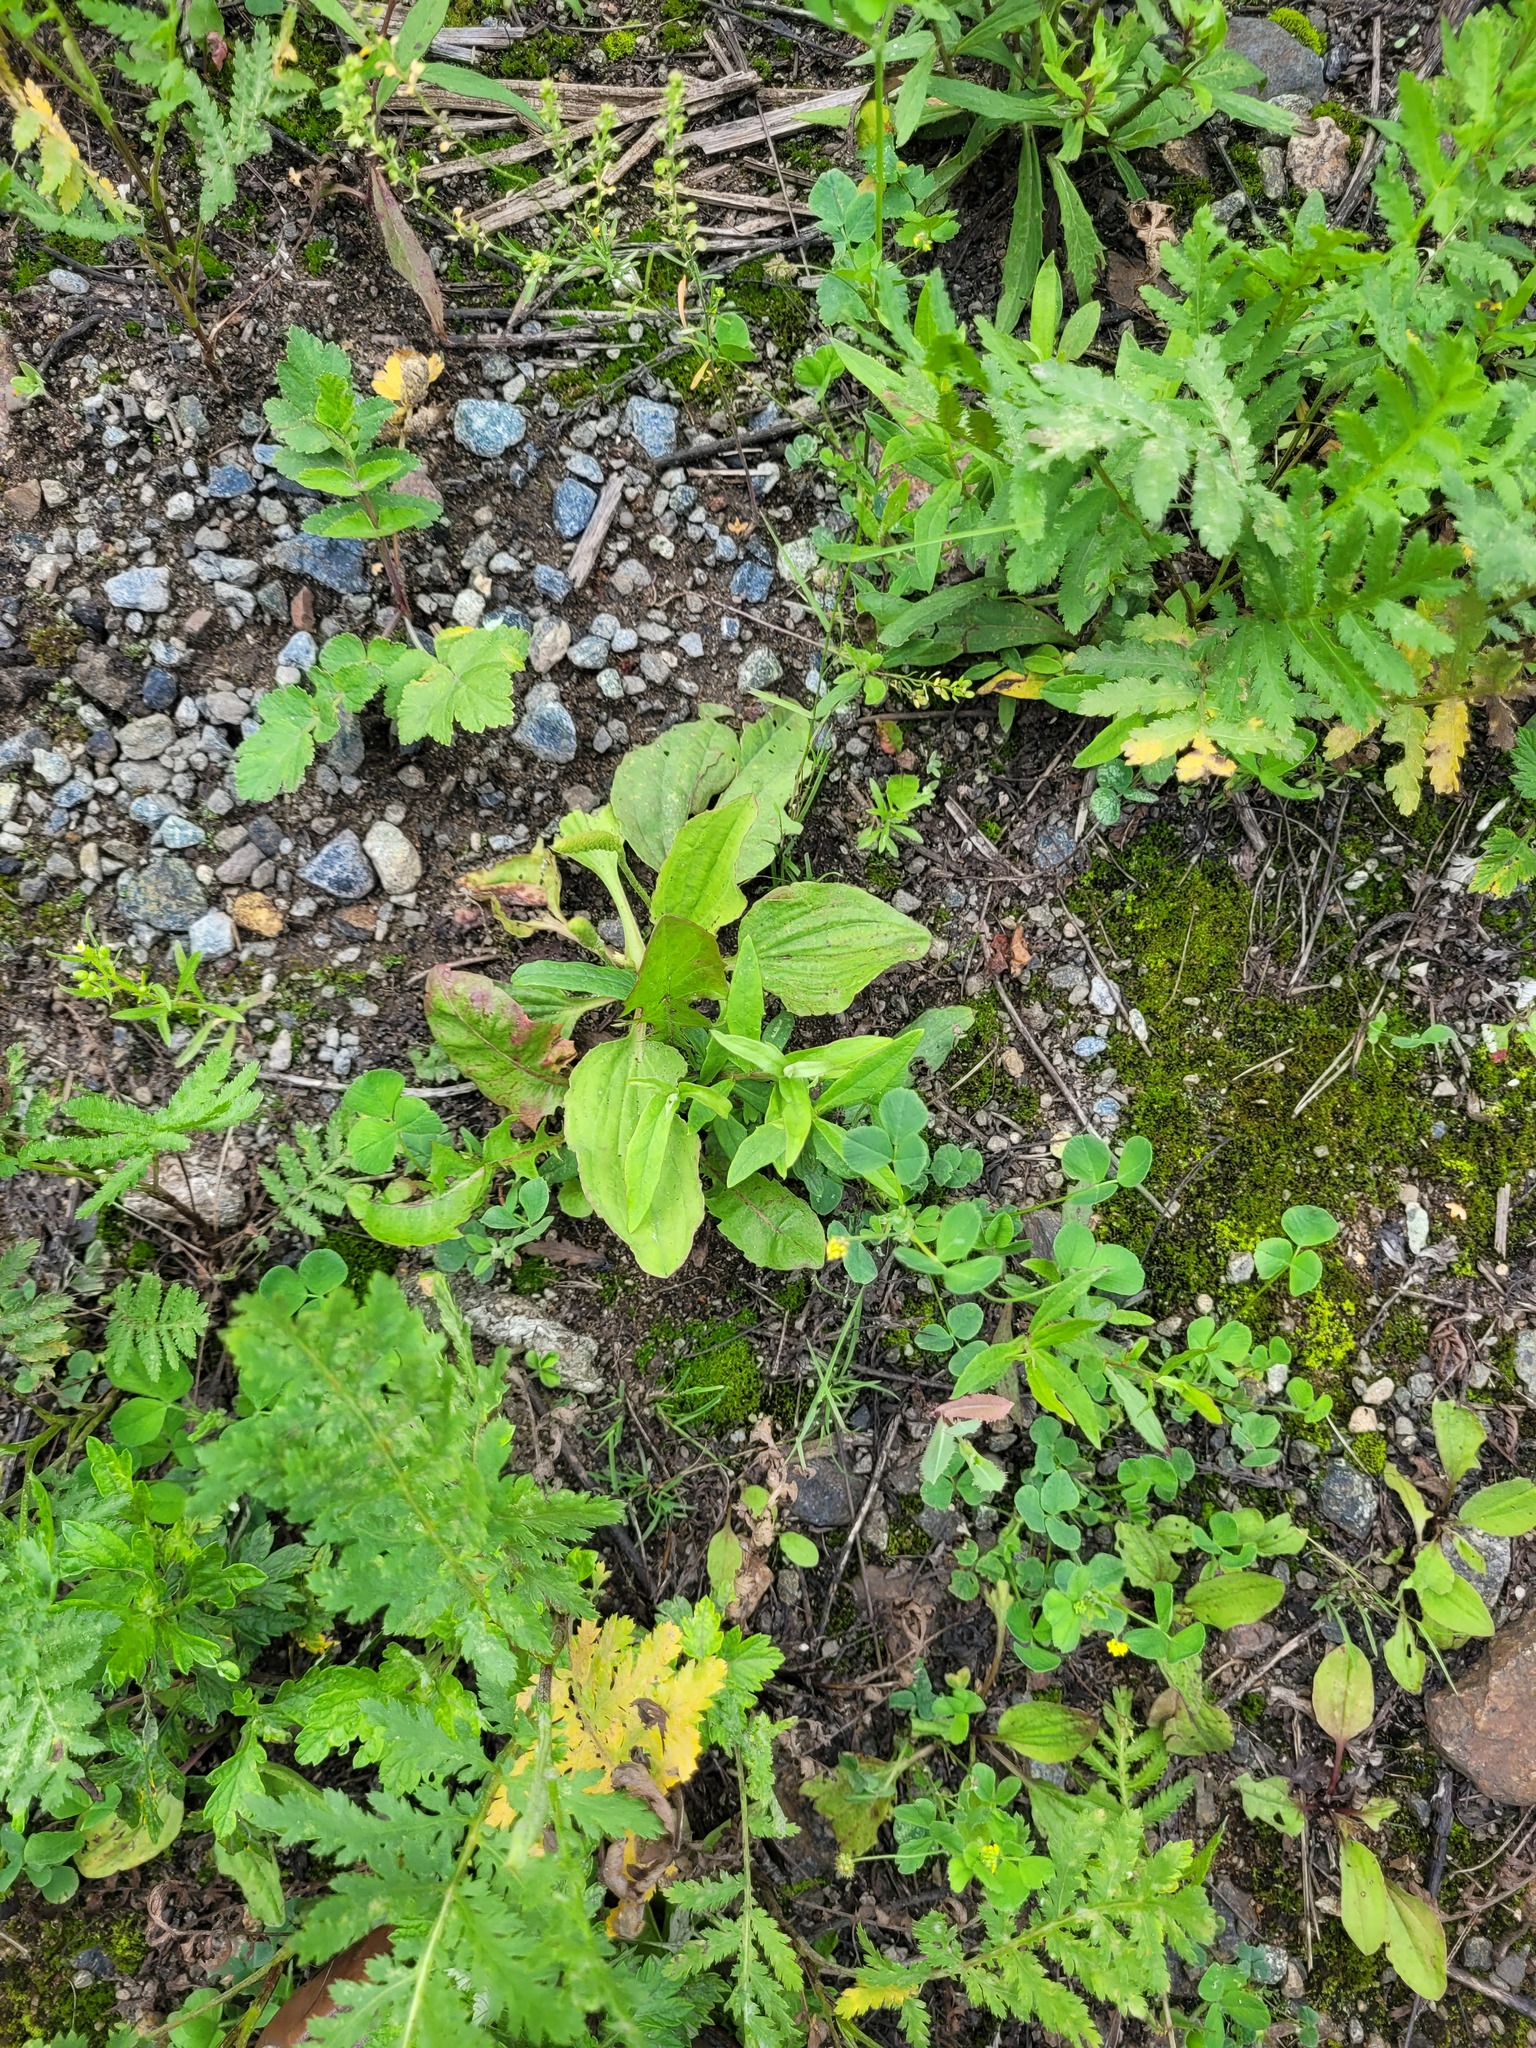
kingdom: Plantae
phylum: Tracheophyta
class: Magnoliopsida
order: Lamiales
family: Plantaginaceae
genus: Plantago
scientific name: Plantago major
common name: Common plantain
